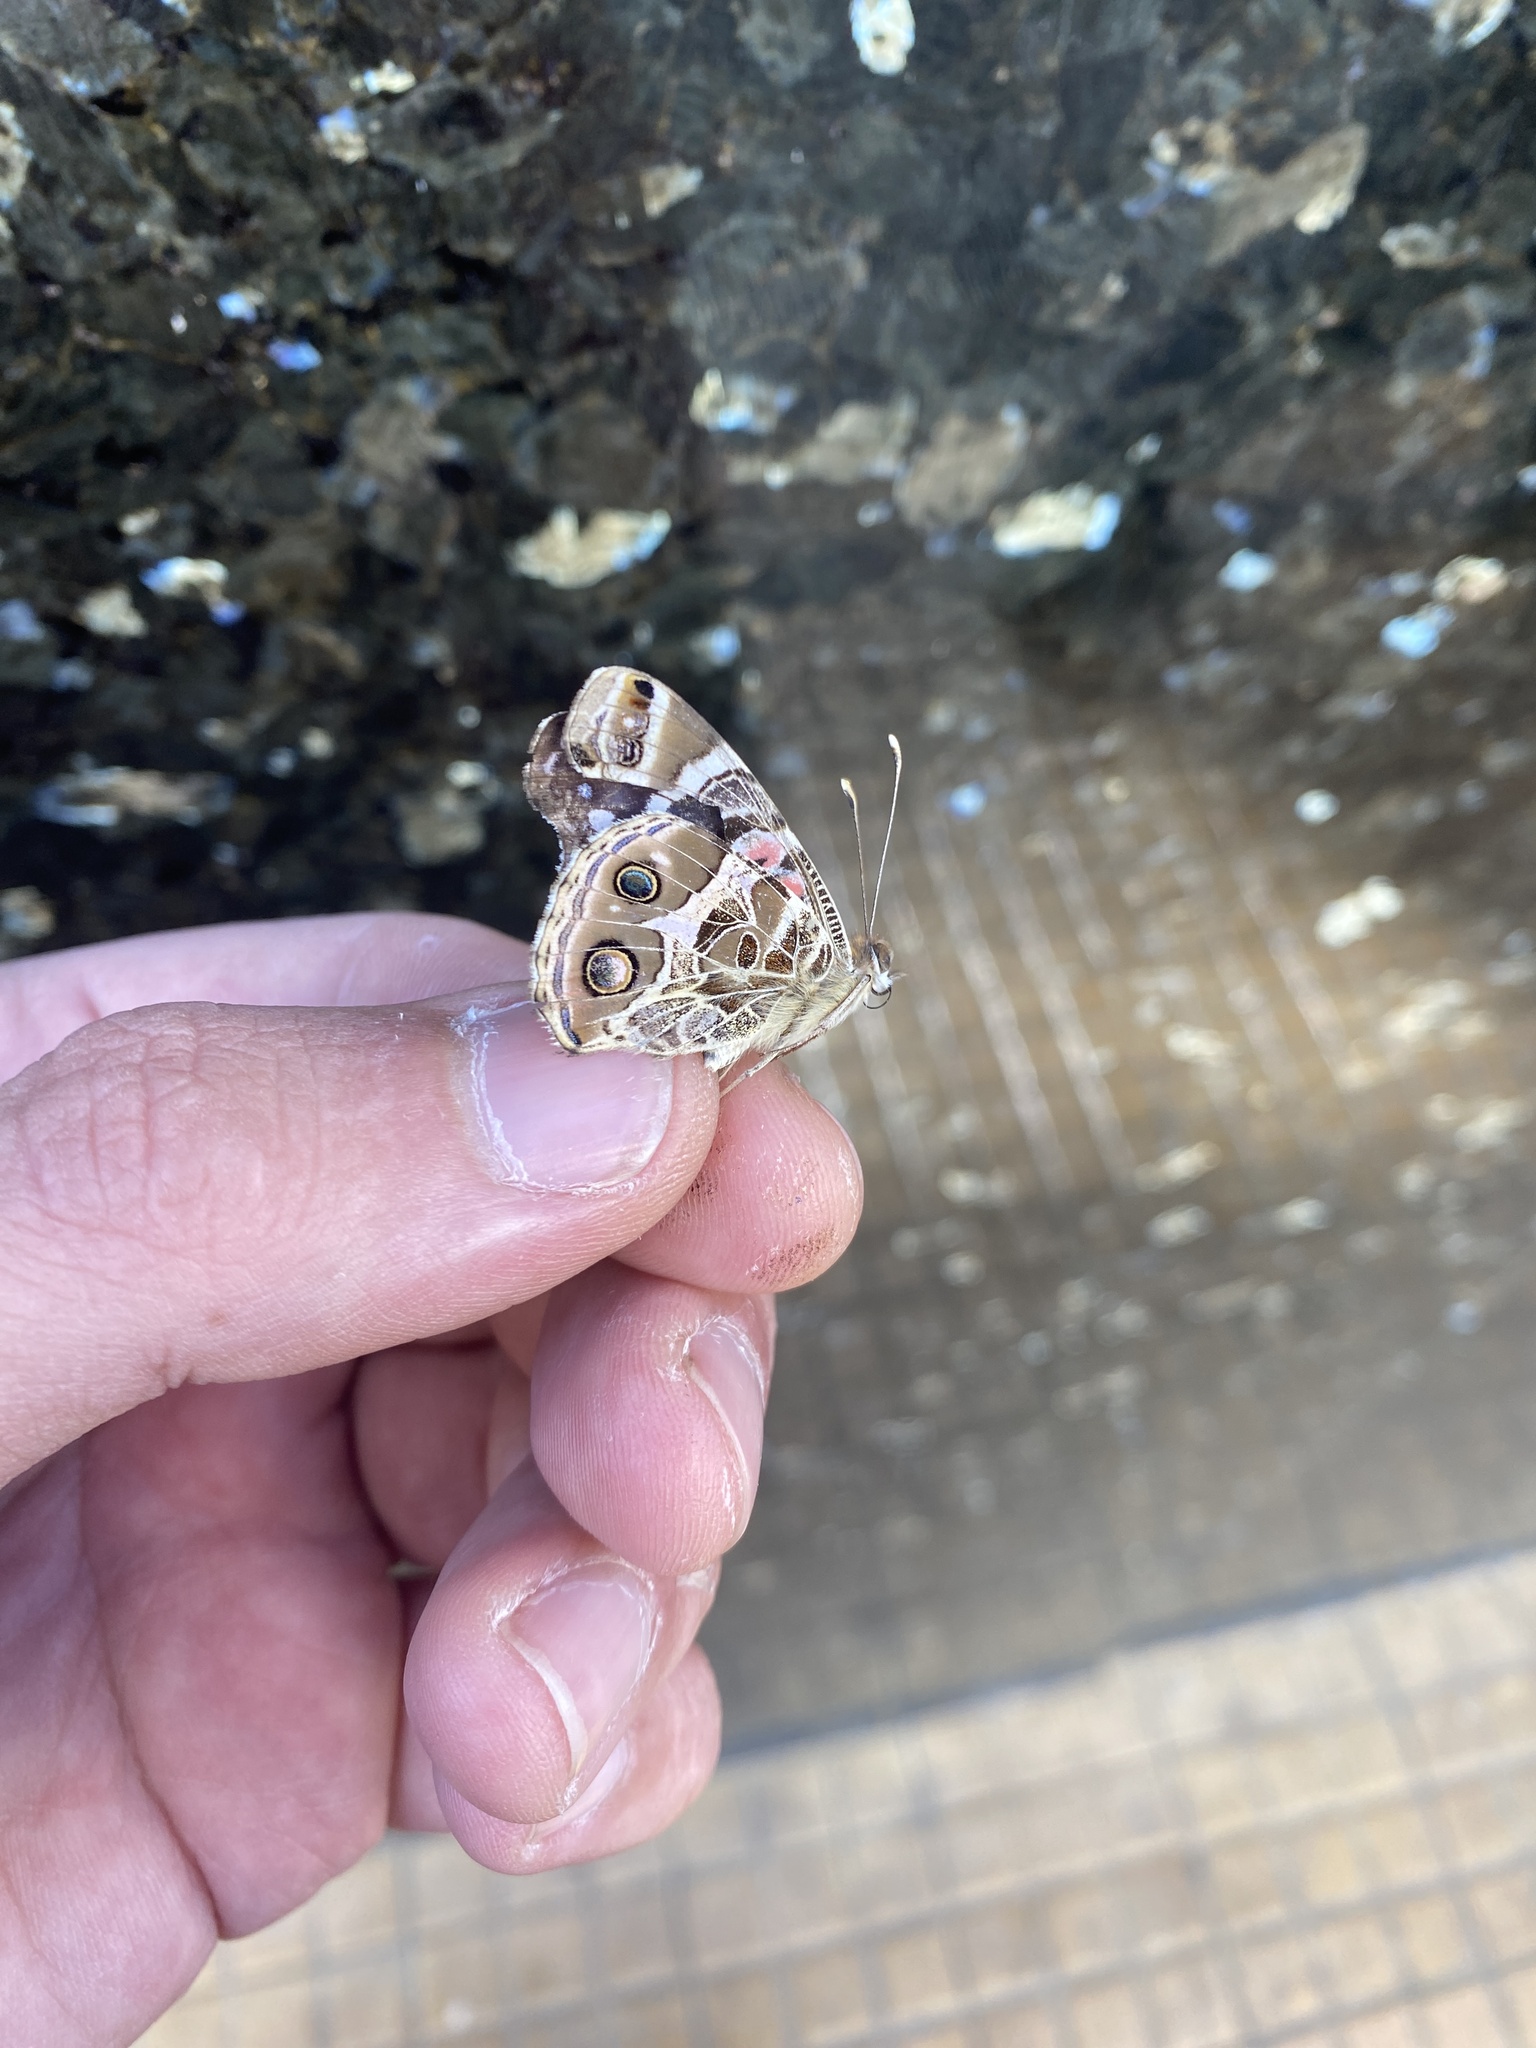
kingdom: Animalia
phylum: Arthropoda
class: Insecta
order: Lepidoptera
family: Nymphalidae
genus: Vanessa
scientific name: Vanessa braziliensis
